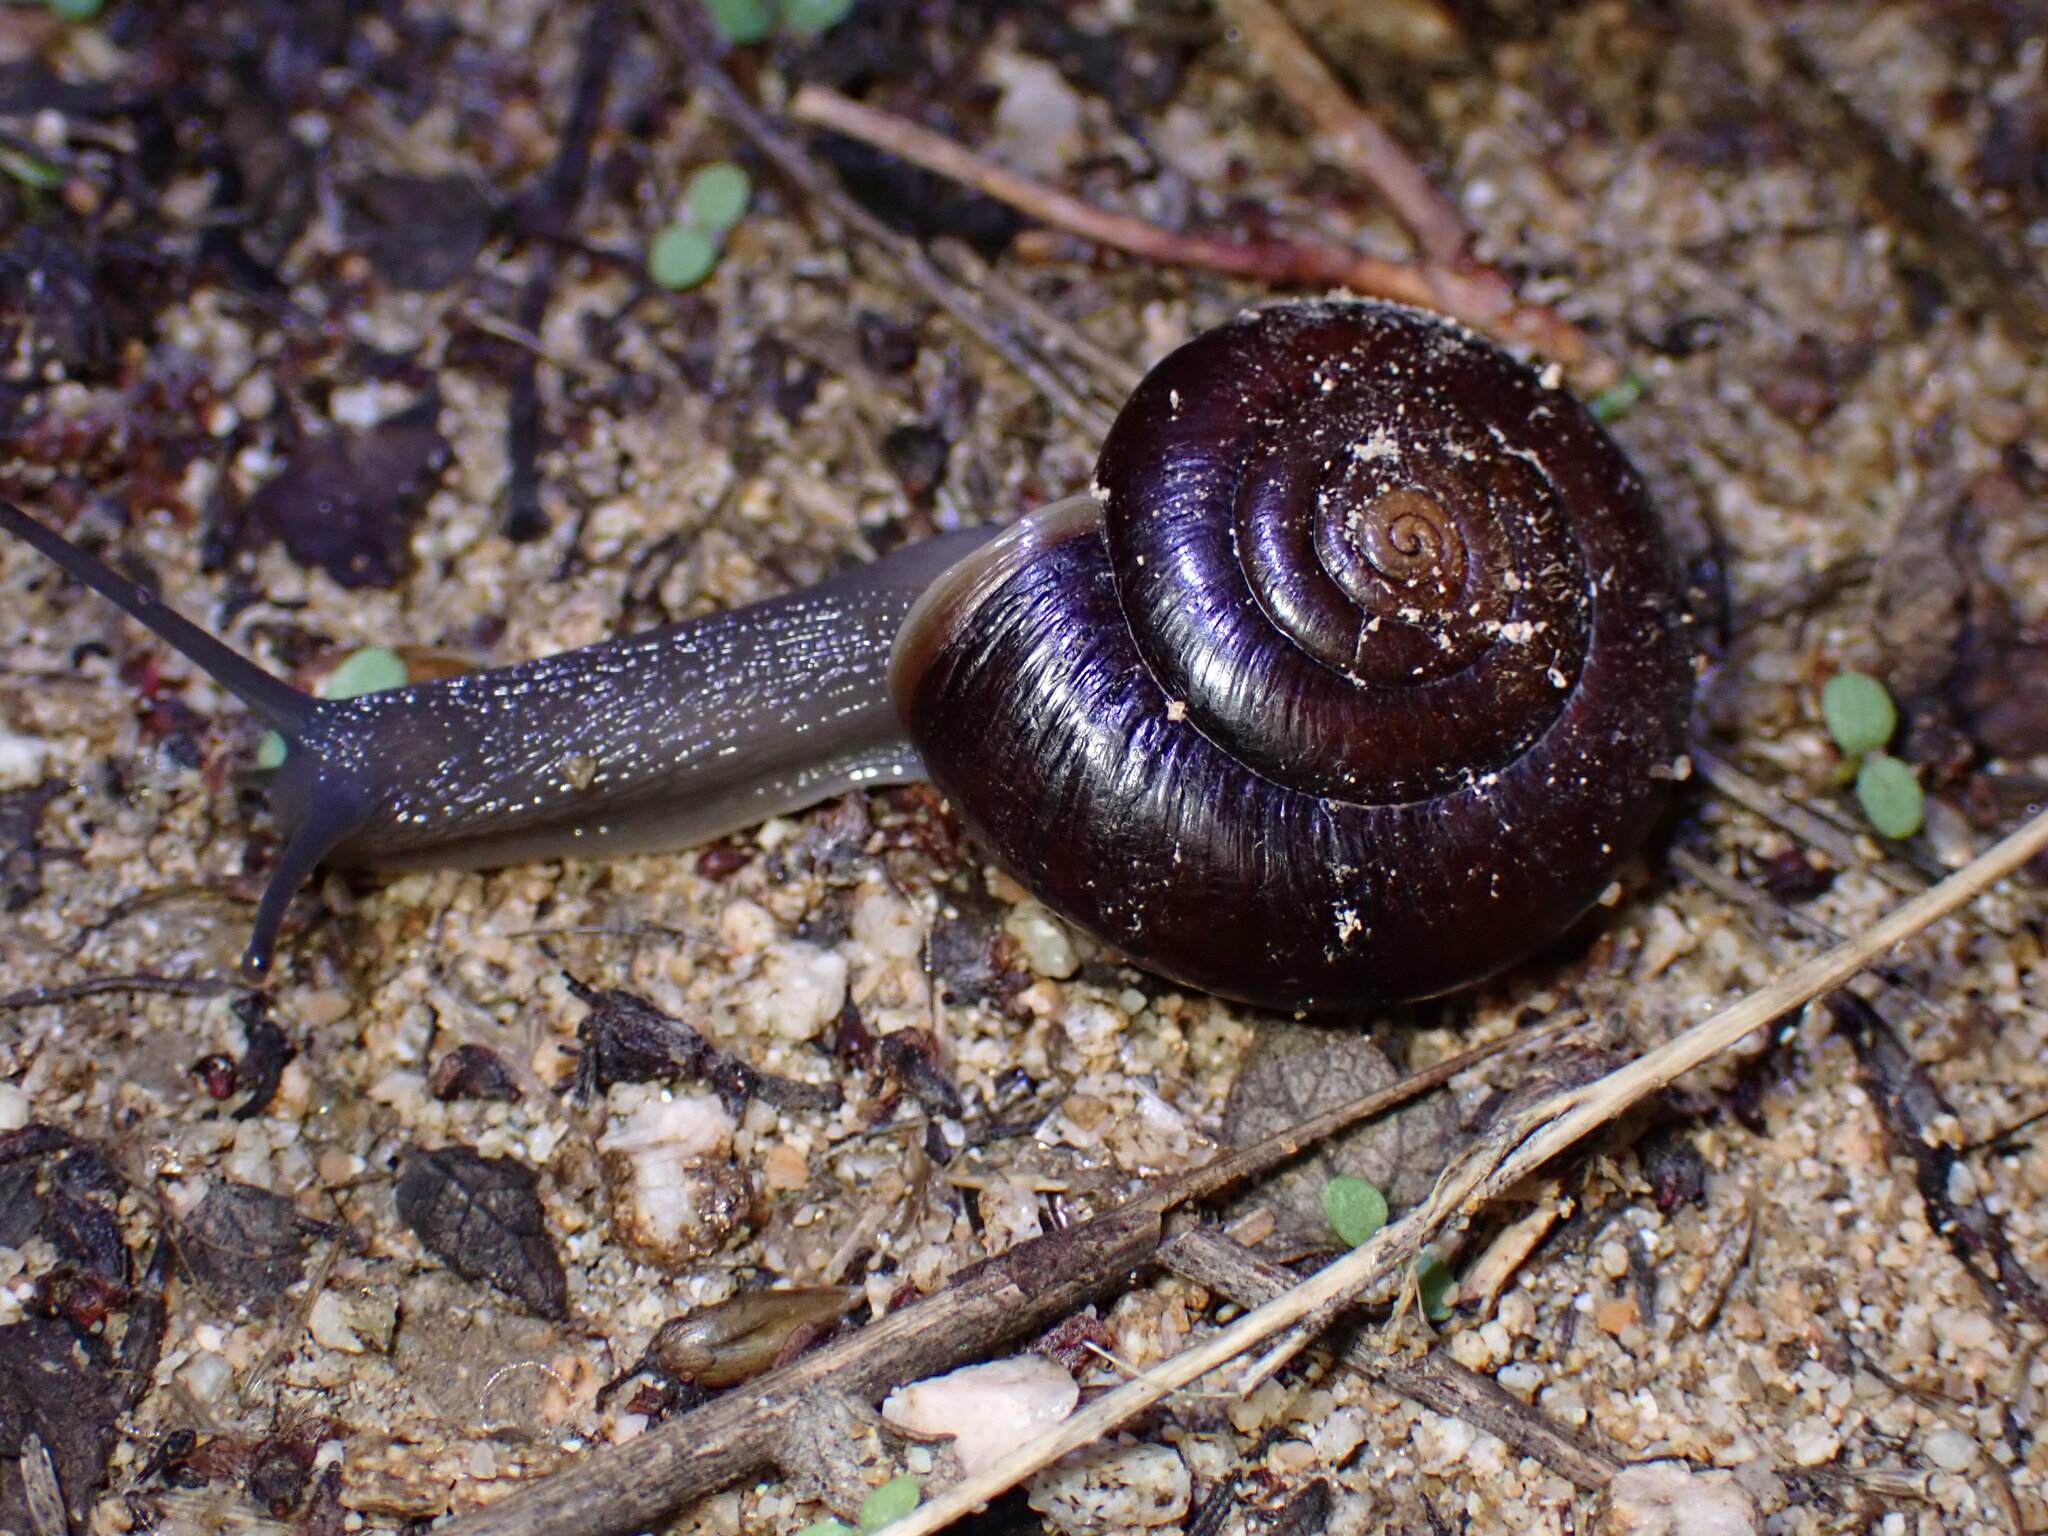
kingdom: Animalia
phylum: Mollusca
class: Gastropoda
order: Stylommatophora
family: Megomphicidae
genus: Glyptostoma
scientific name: Glyptostoma gabrielense
